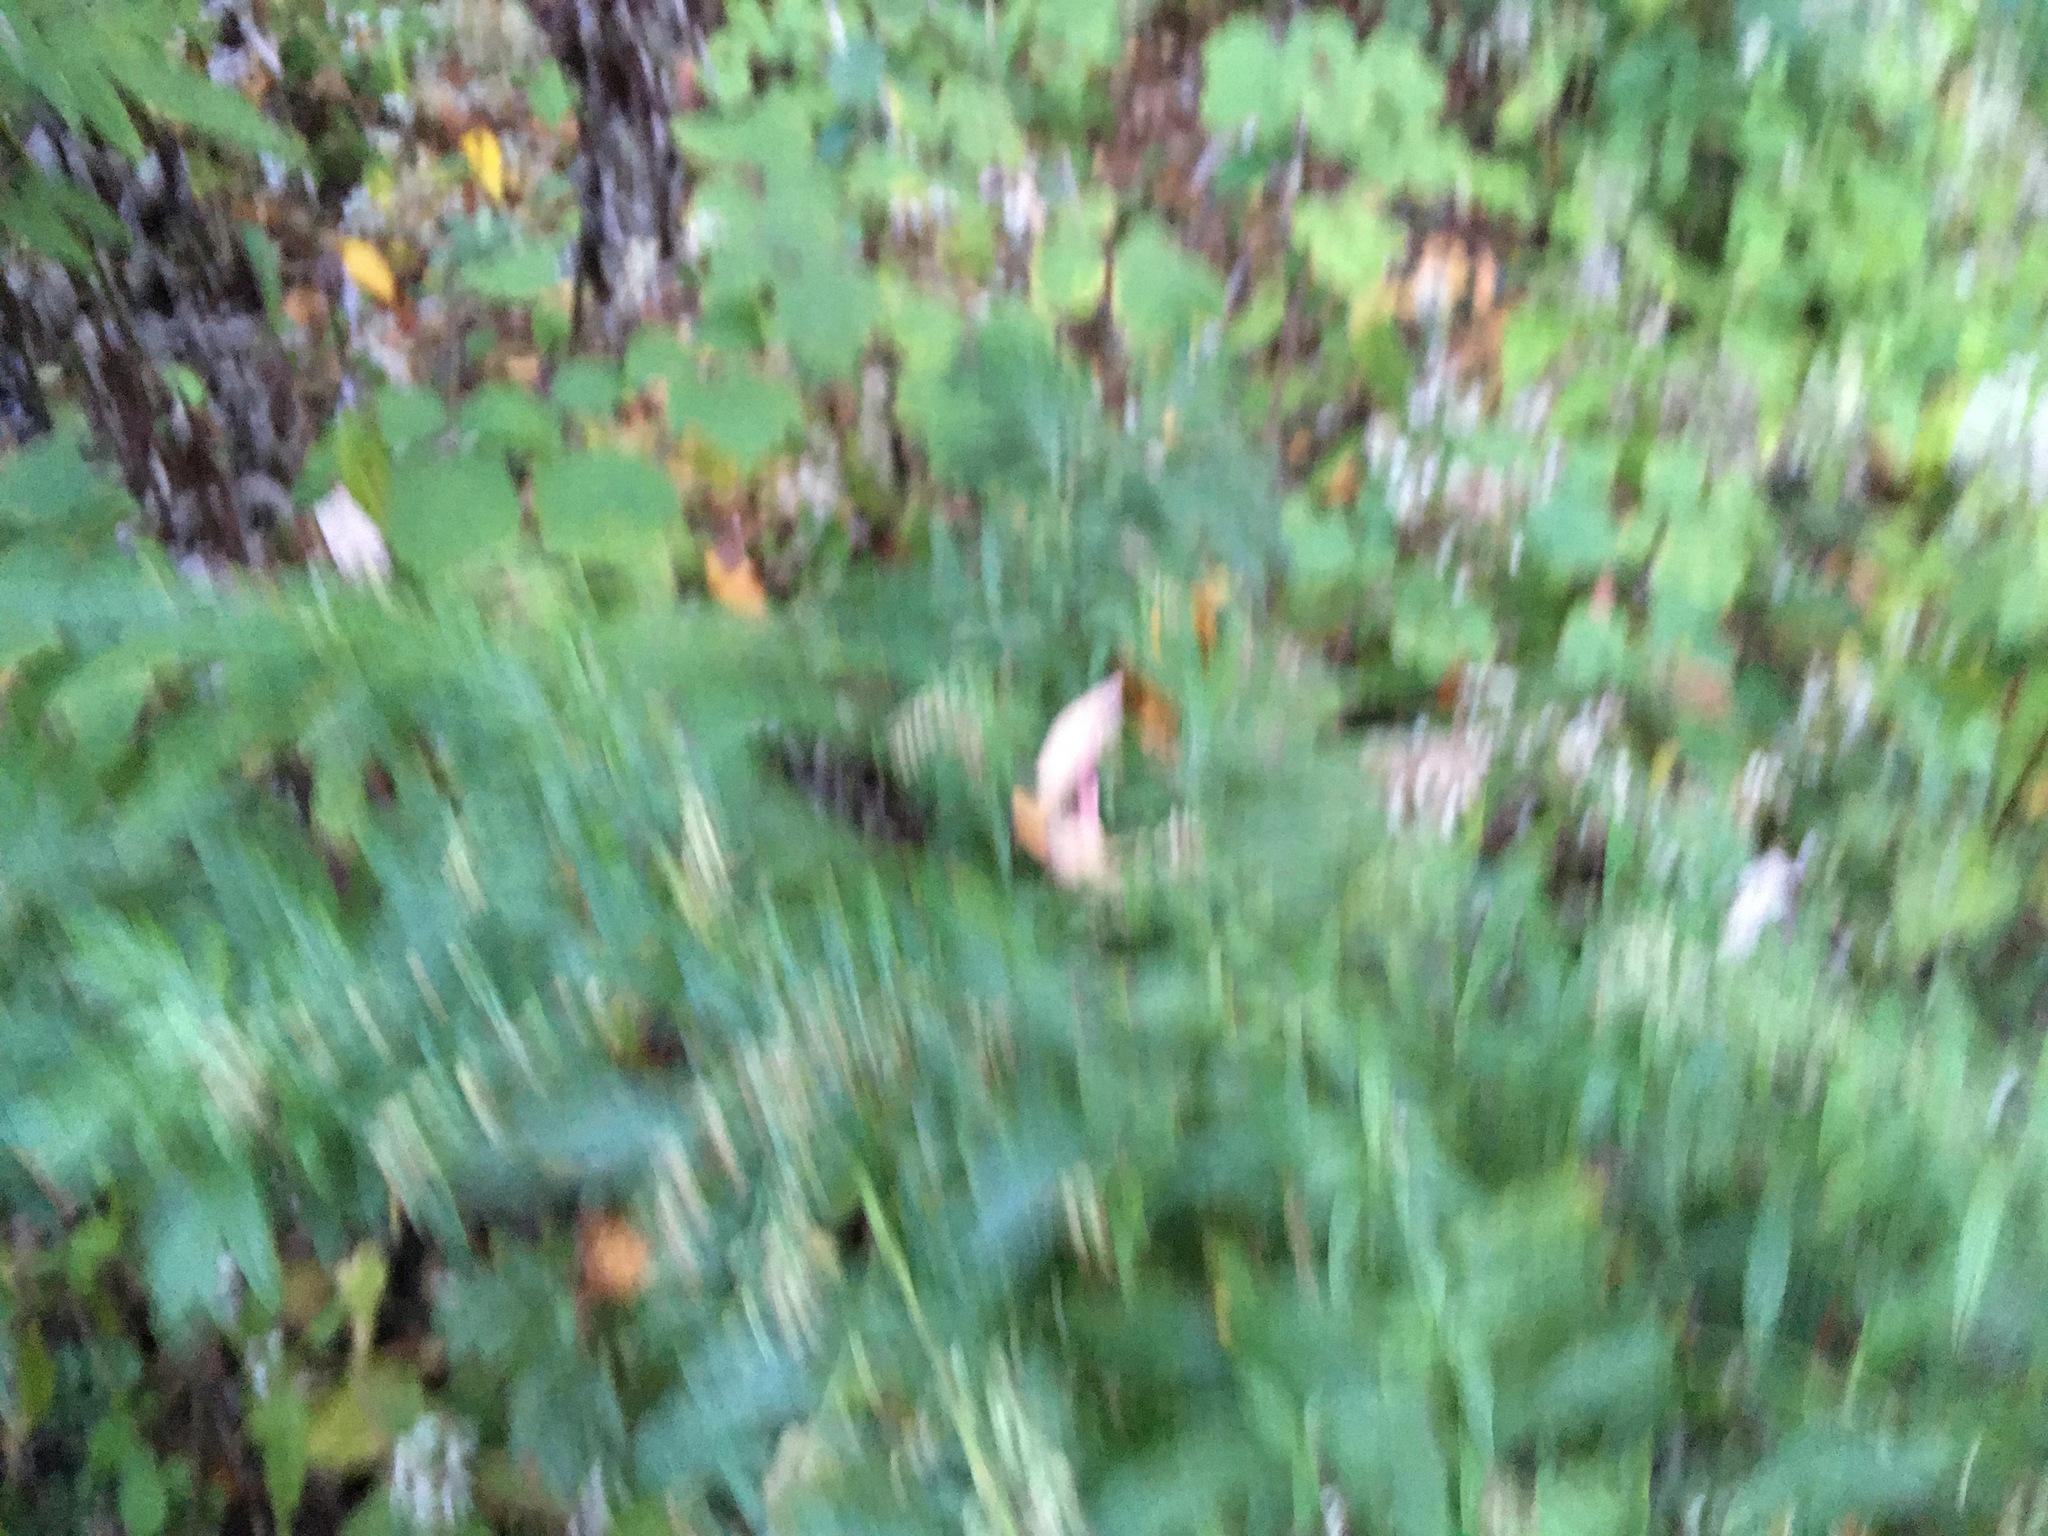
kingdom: Plantae
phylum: Tracheophyta
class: Magnoliopsida
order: Asterales
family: Asteraceae
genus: Artemisia
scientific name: Artemisia vulgaris
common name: Mugwort
